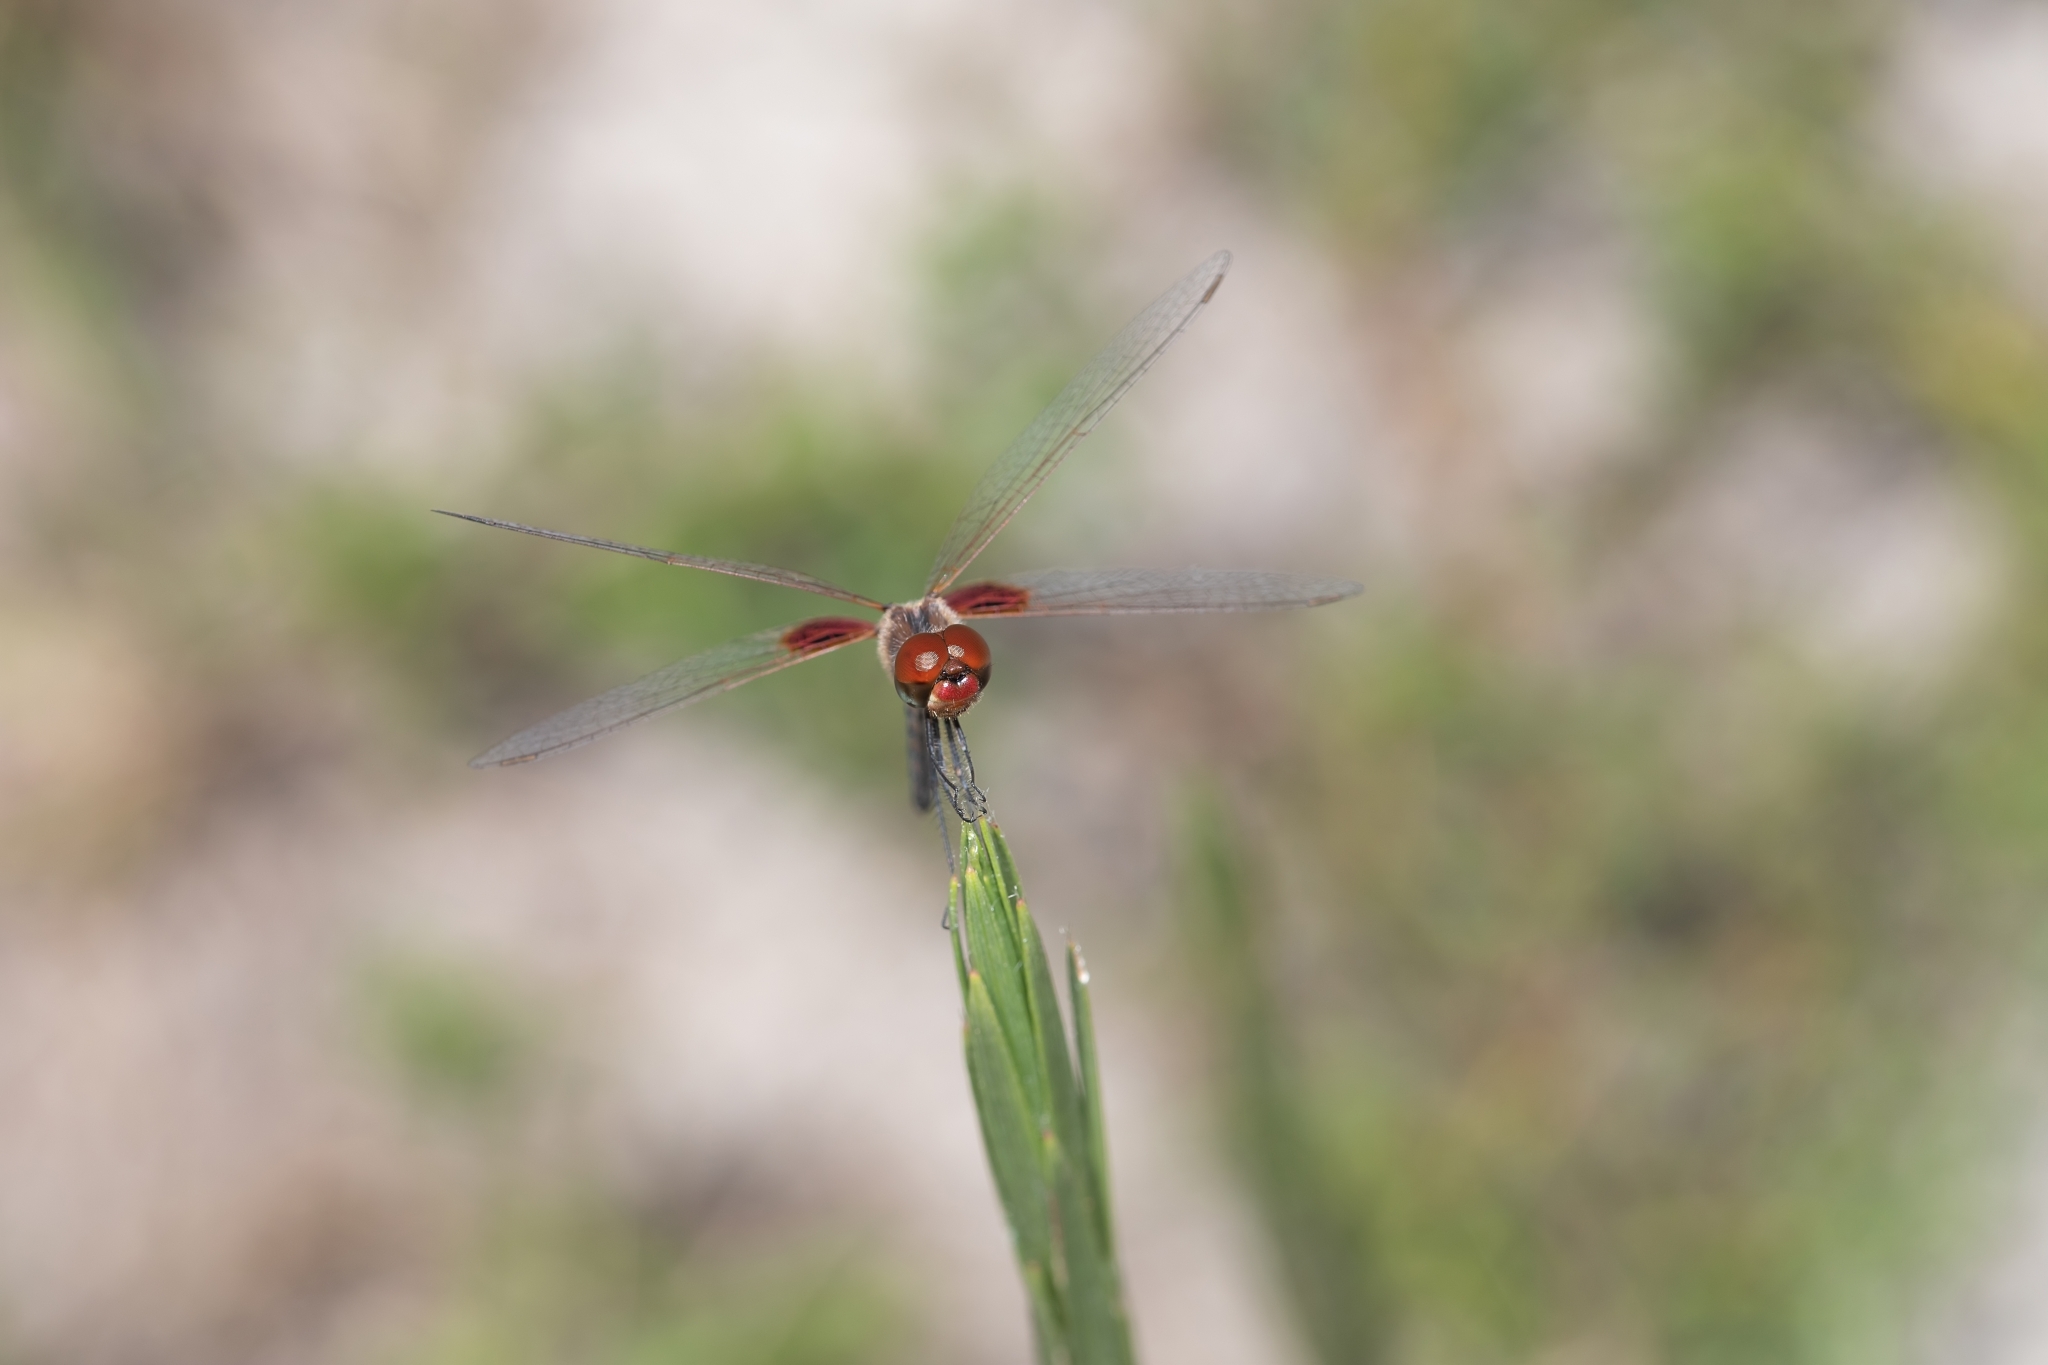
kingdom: Animalia
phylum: Arthropoda
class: Insecta
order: Odonata
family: Libellulidae
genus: Celithemis
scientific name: Celithemis amanda
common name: Amanda's pennant
